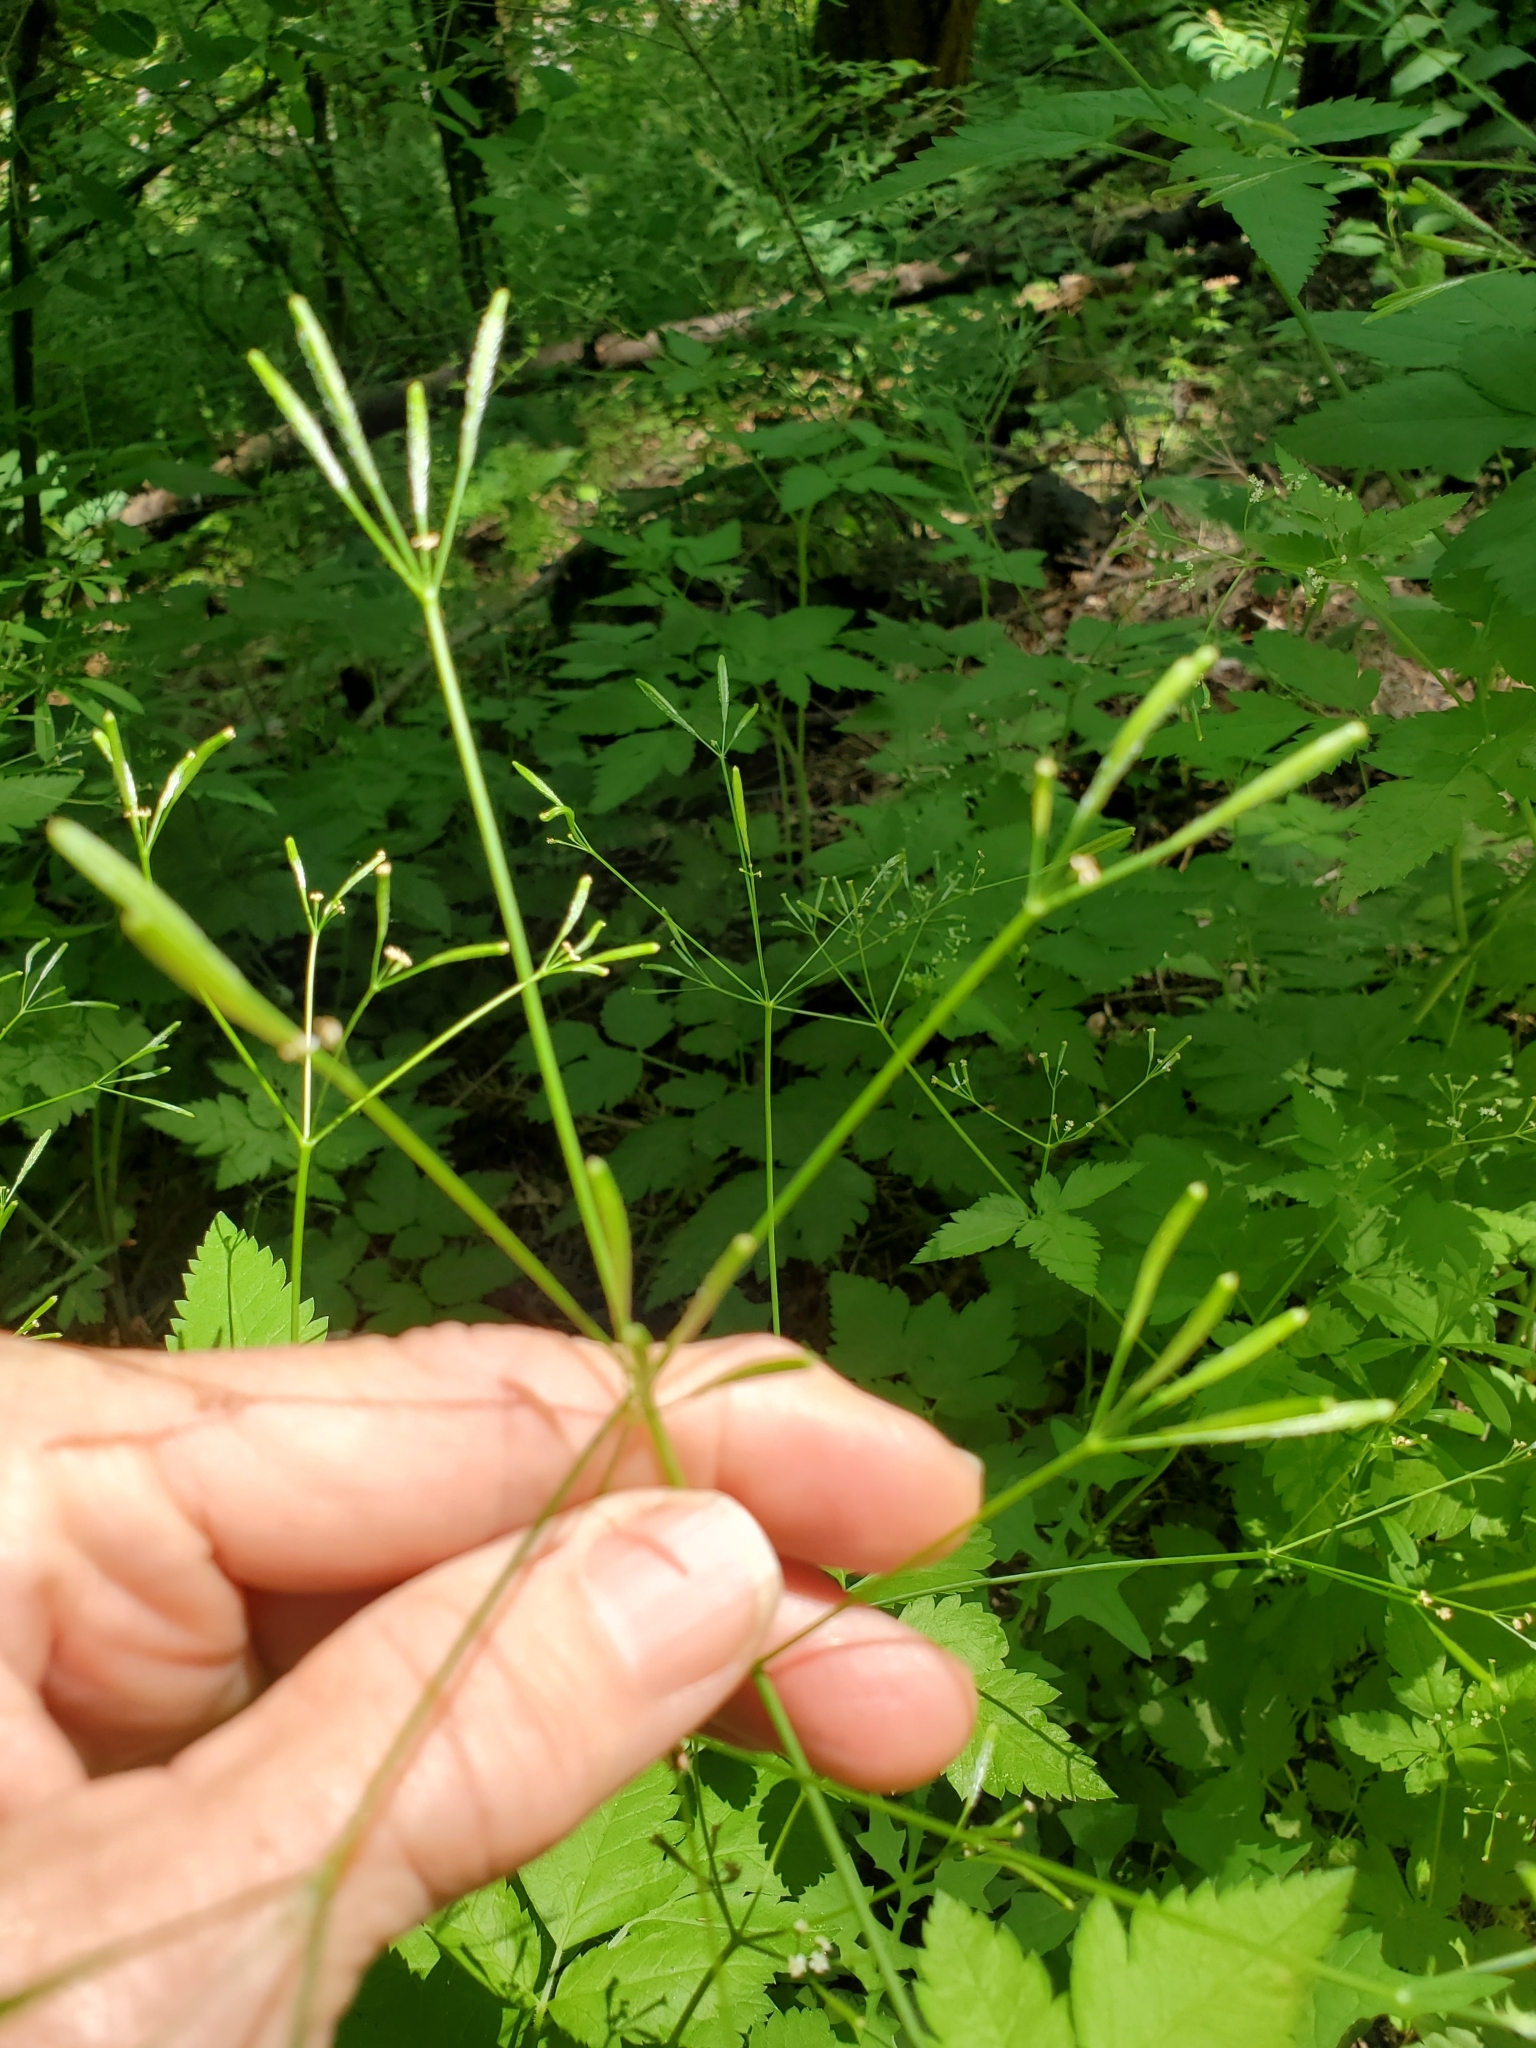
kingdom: Plantae
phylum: Tracheophyta
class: Magnoliopsida
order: Apiales
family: Apiaceae
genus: Osmorhiza
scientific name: Osmorhiza berteroi
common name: Mountain sweet cicely
